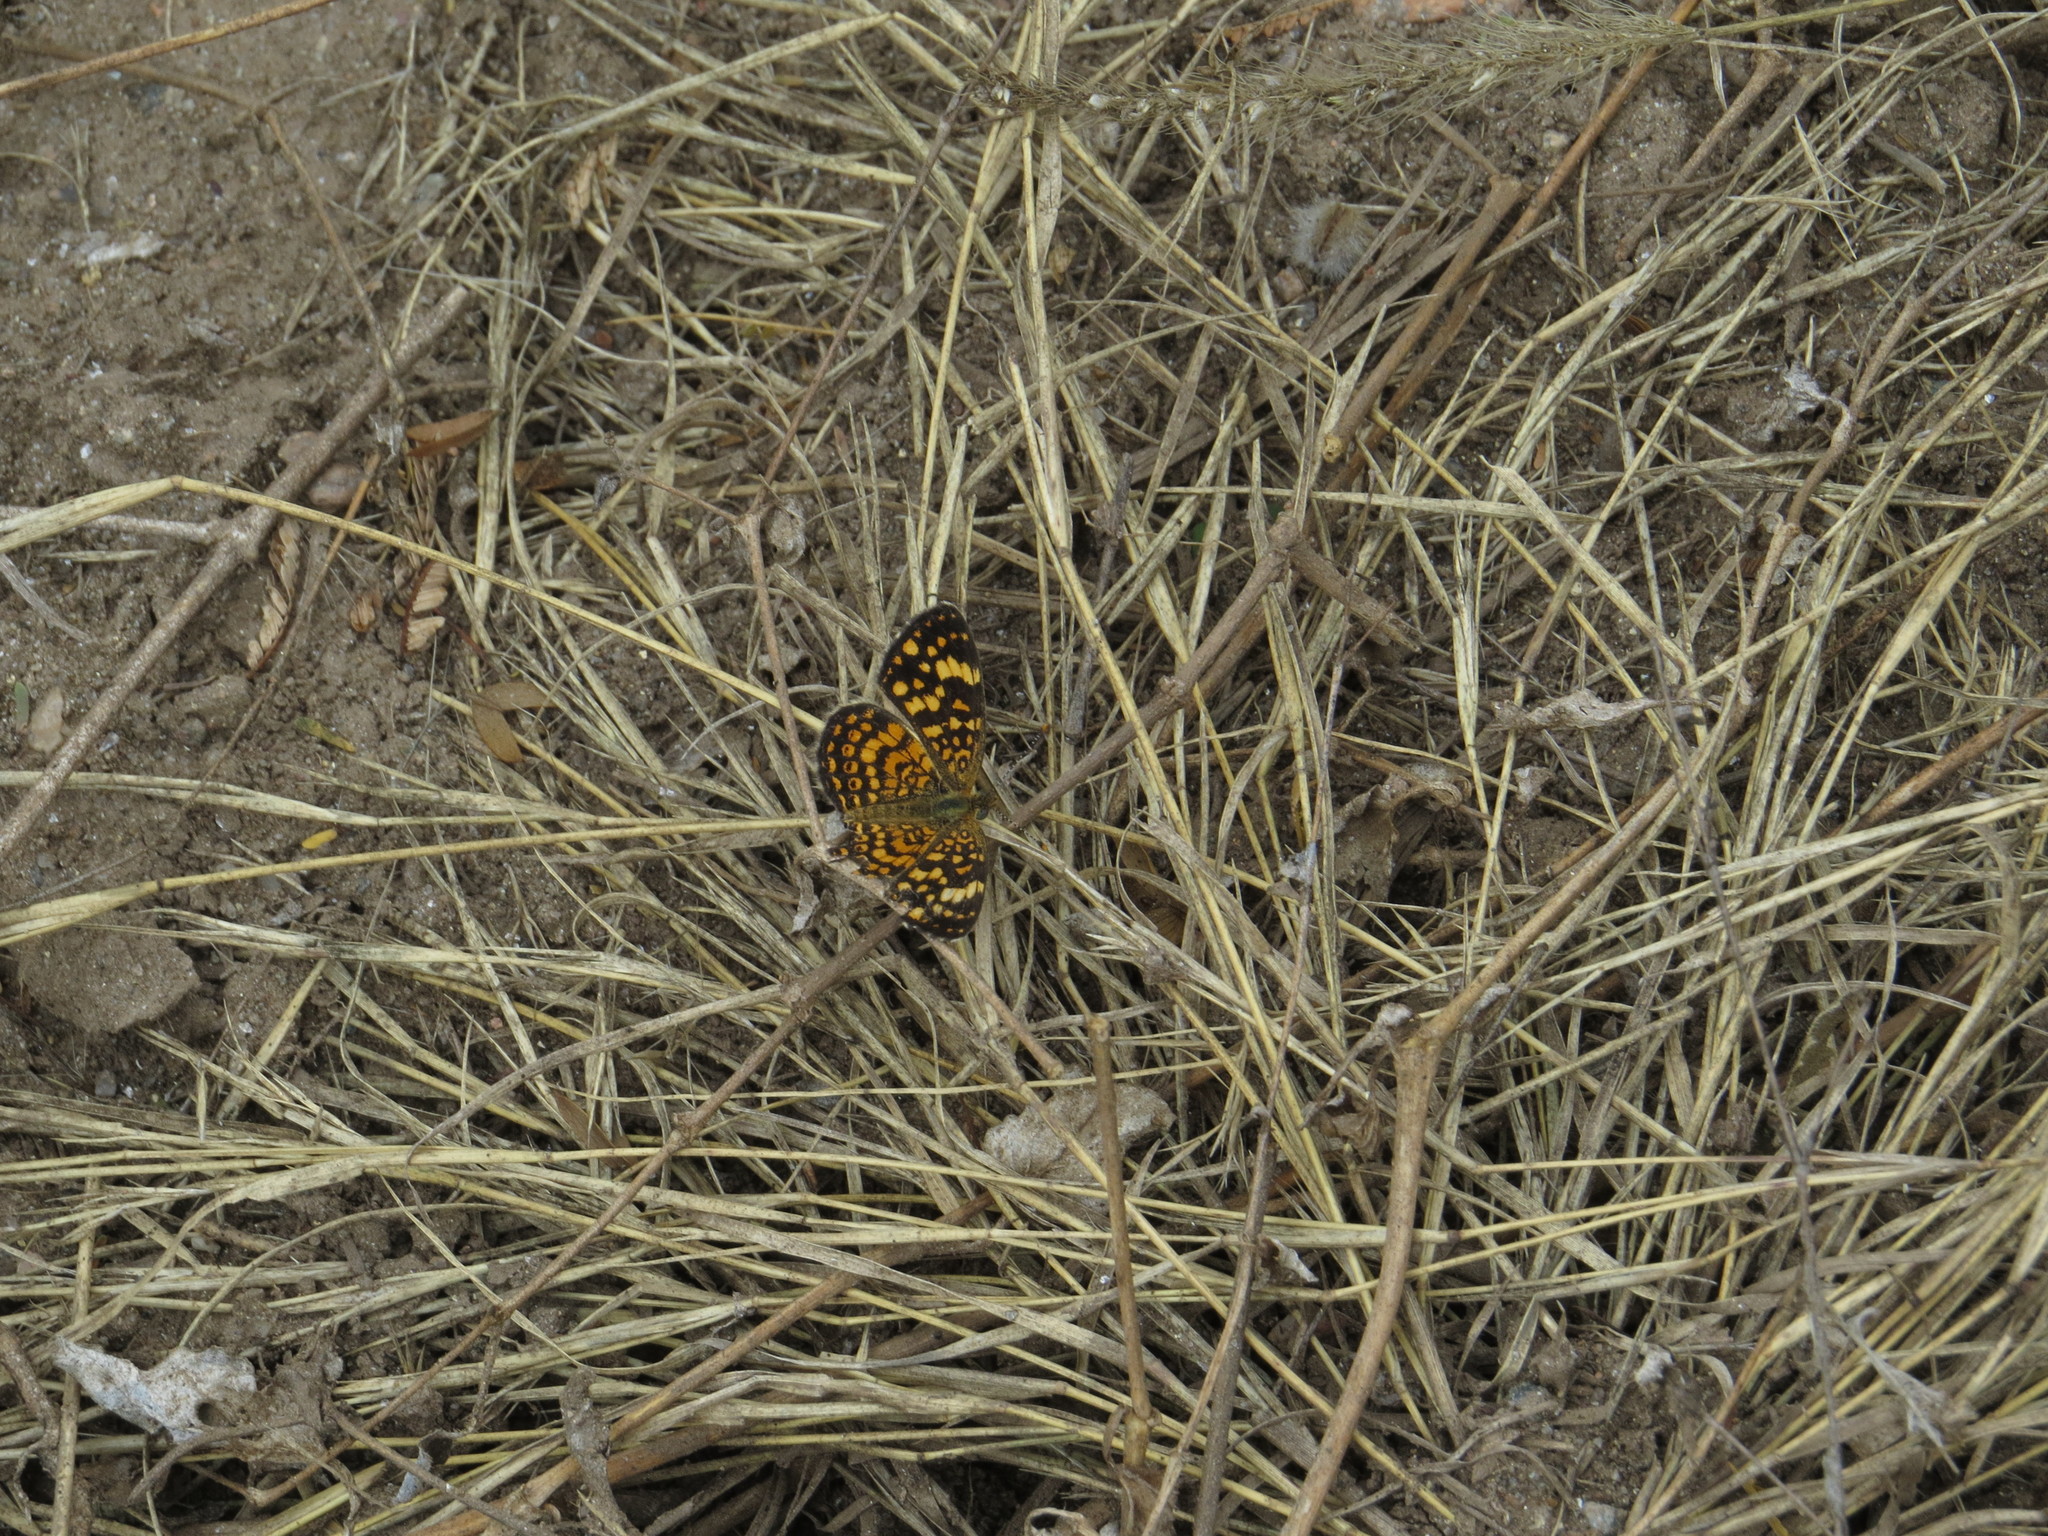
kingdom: Animalia
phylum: Arthropoda
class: Insecta
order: Lepidoptera
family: Nymphalidae
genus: Phystis
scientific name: Phystis simois
